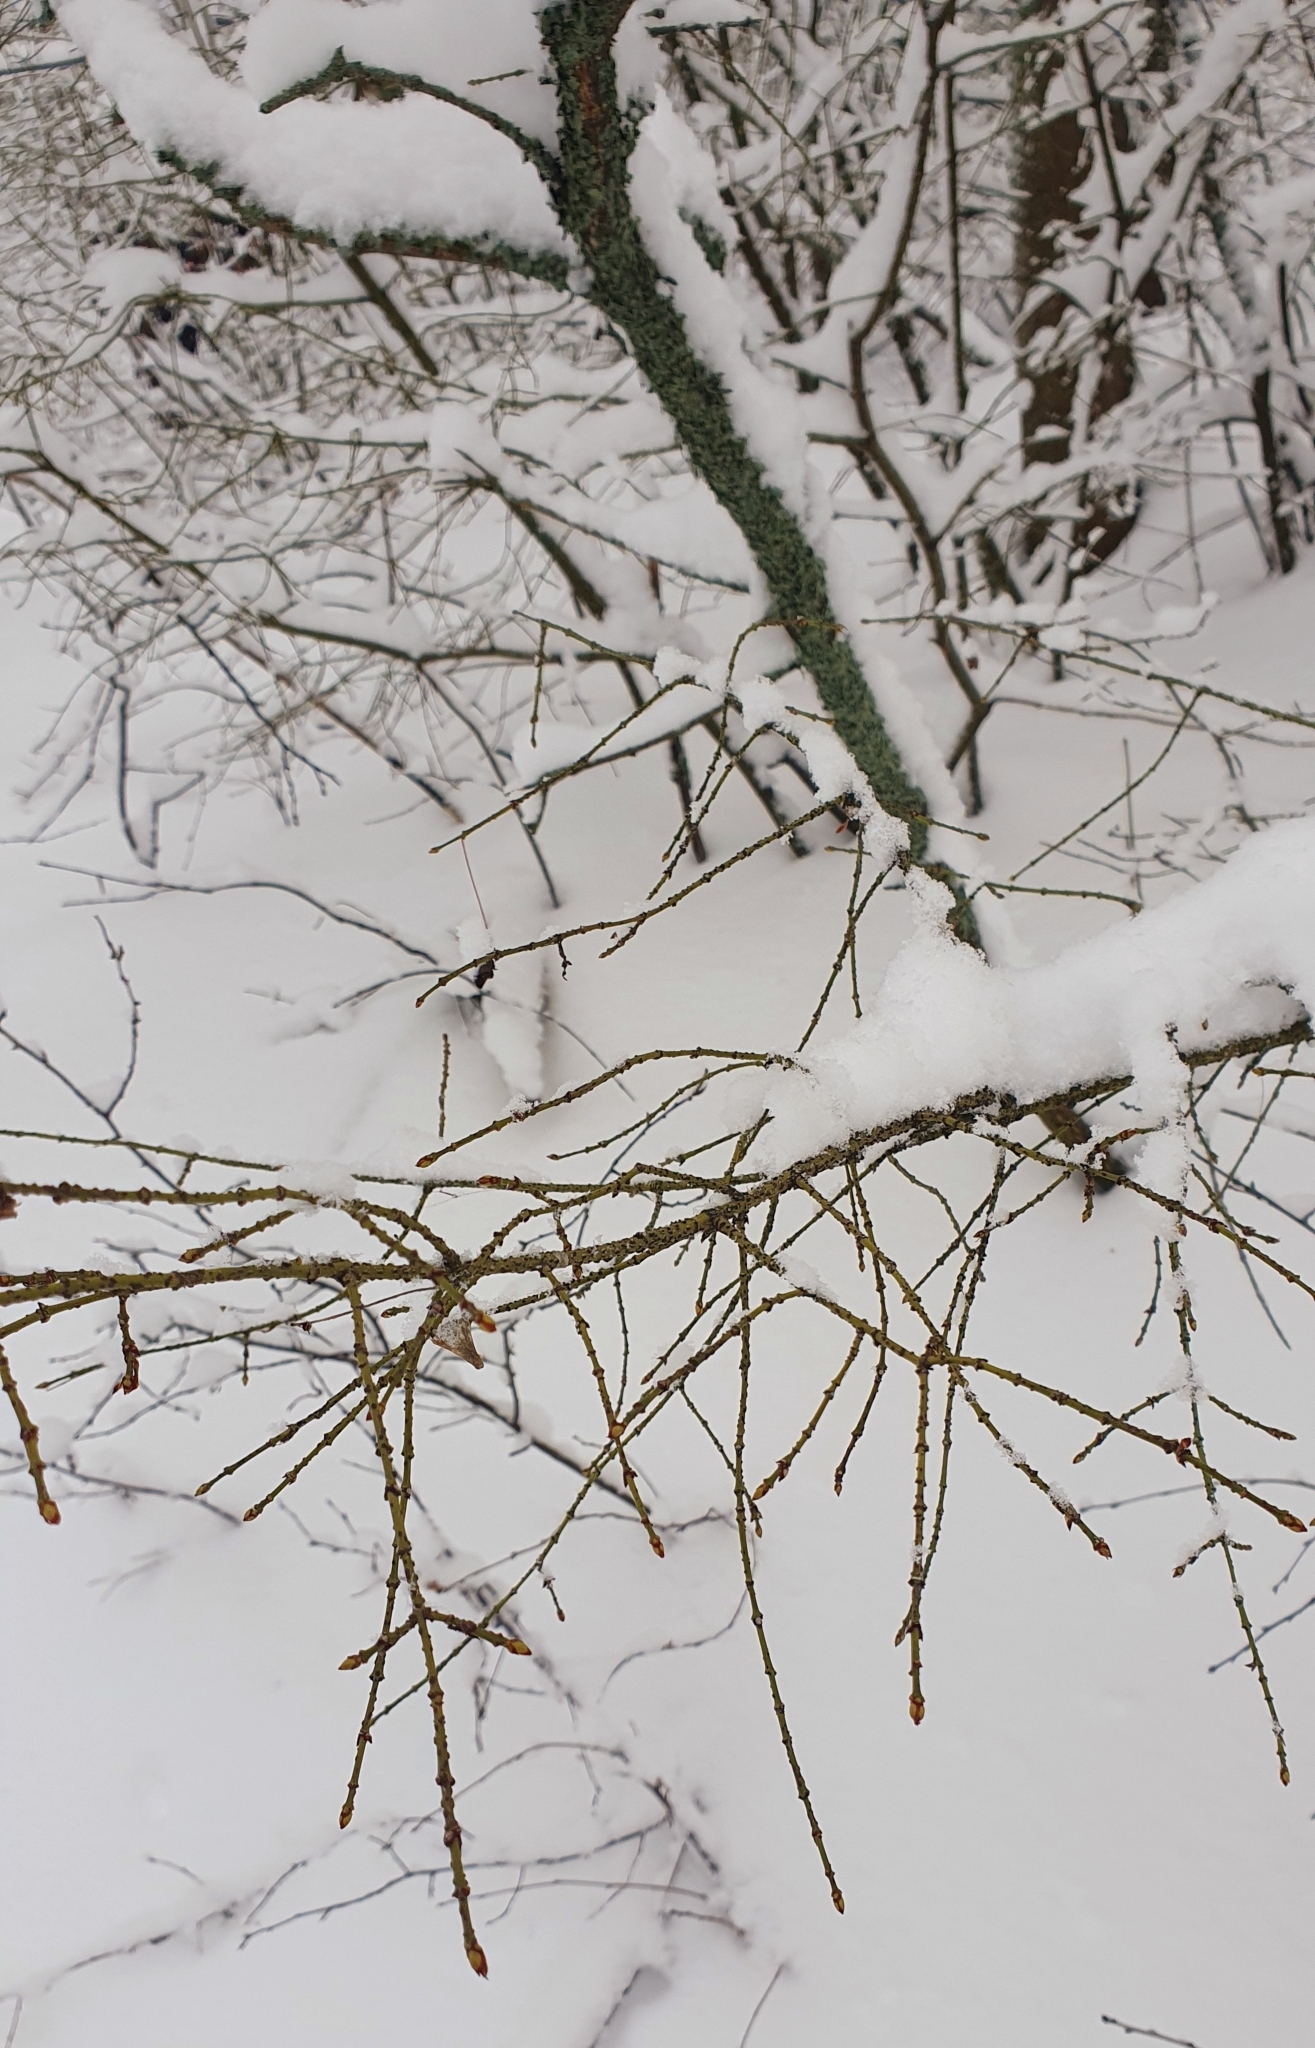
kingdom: Plantae
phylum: Tracheophyta
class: Magnoliopsida
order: Celastrales
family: Celastraceae
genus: Euonymus
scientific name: Euonymus verrucosus
